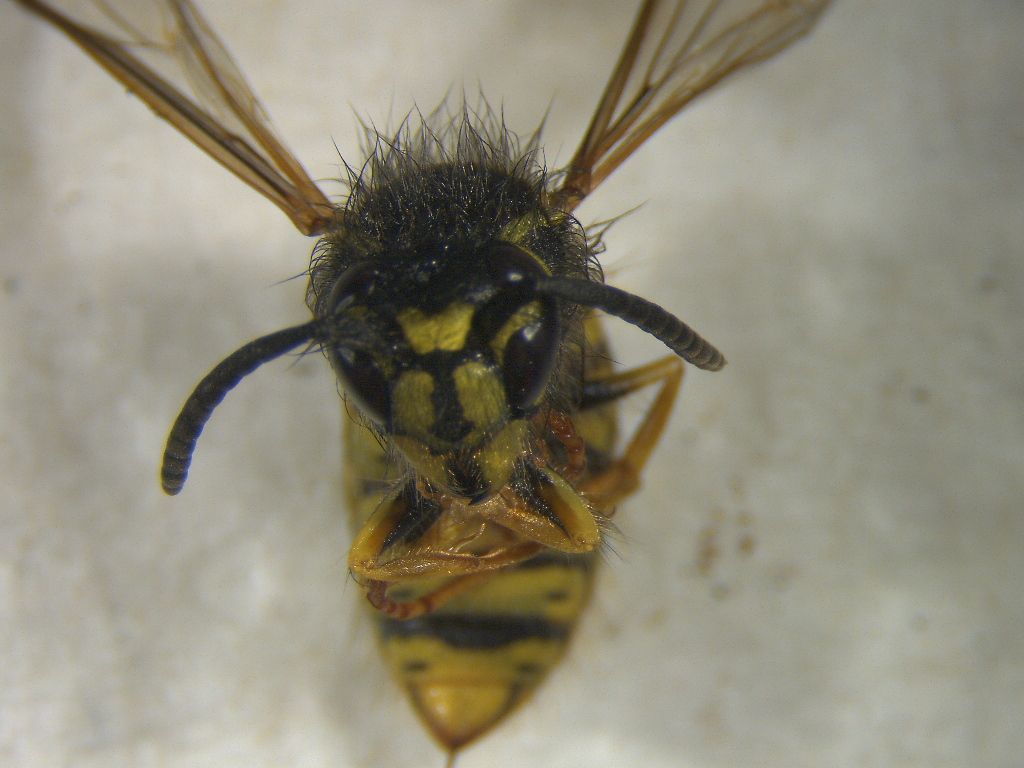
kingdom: Animalia
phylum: Arthropoda
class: Insecta
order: Hymenoptera
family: Vespidae
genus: Vespula
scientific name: Vespula vulgaris
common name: Common wasp
